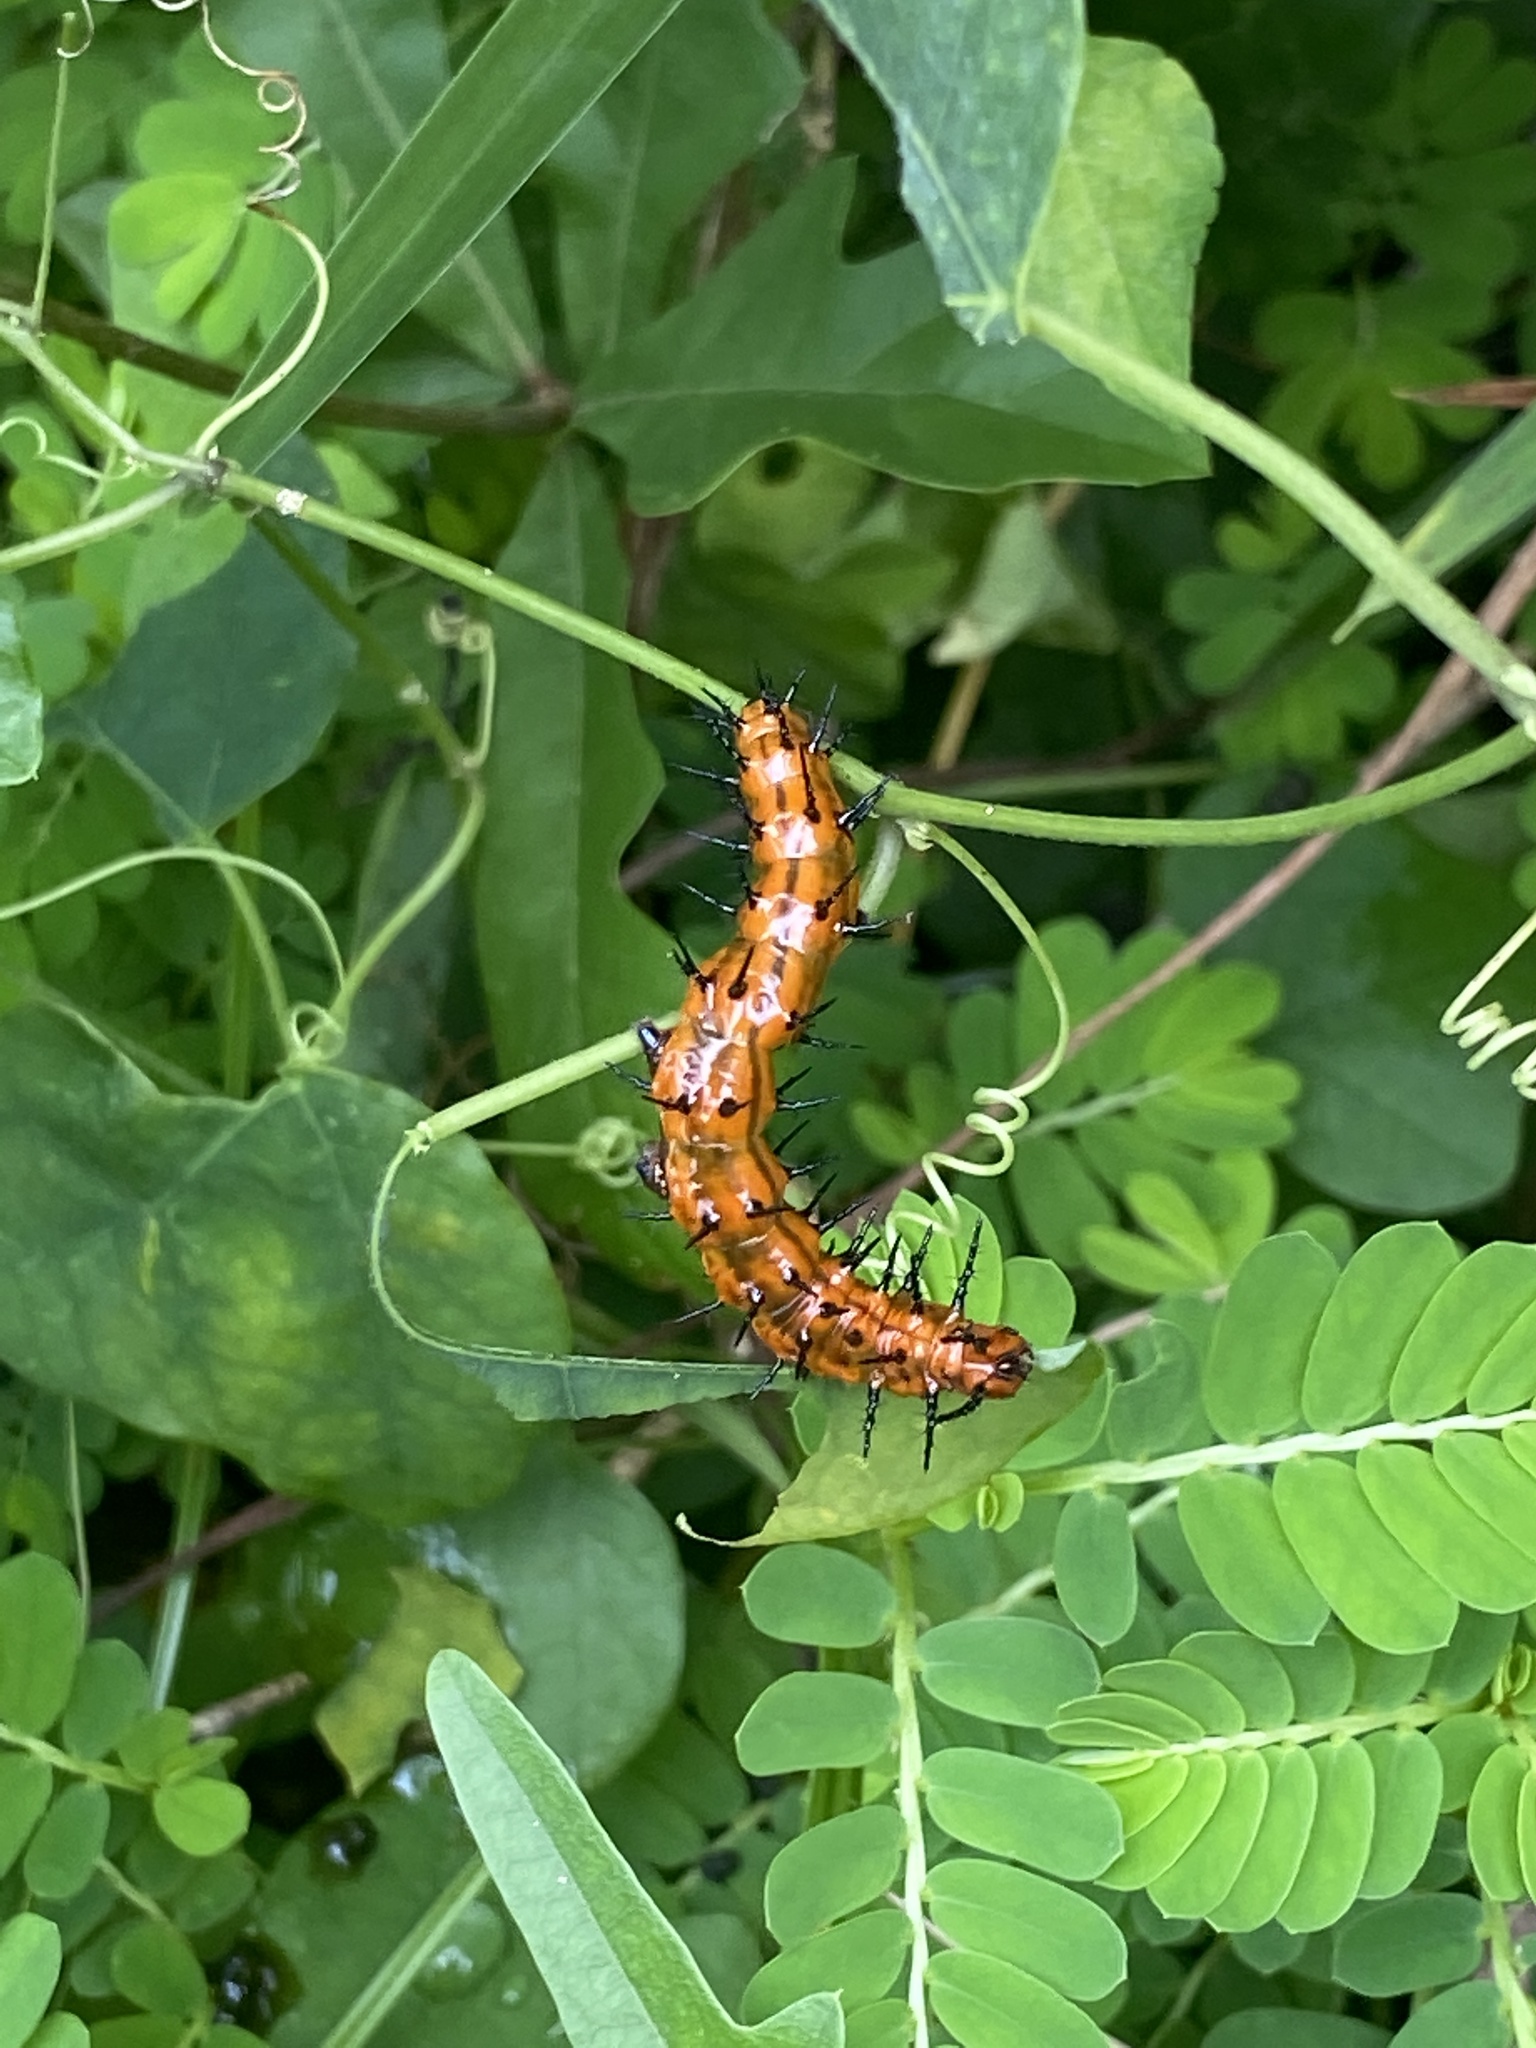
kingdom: Animalia
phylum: Arthropoda
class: Insecta
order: Lepidoptera
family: Nymphalidae
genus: Dione
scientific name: Dione vanillae
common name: Gulf fritillary
